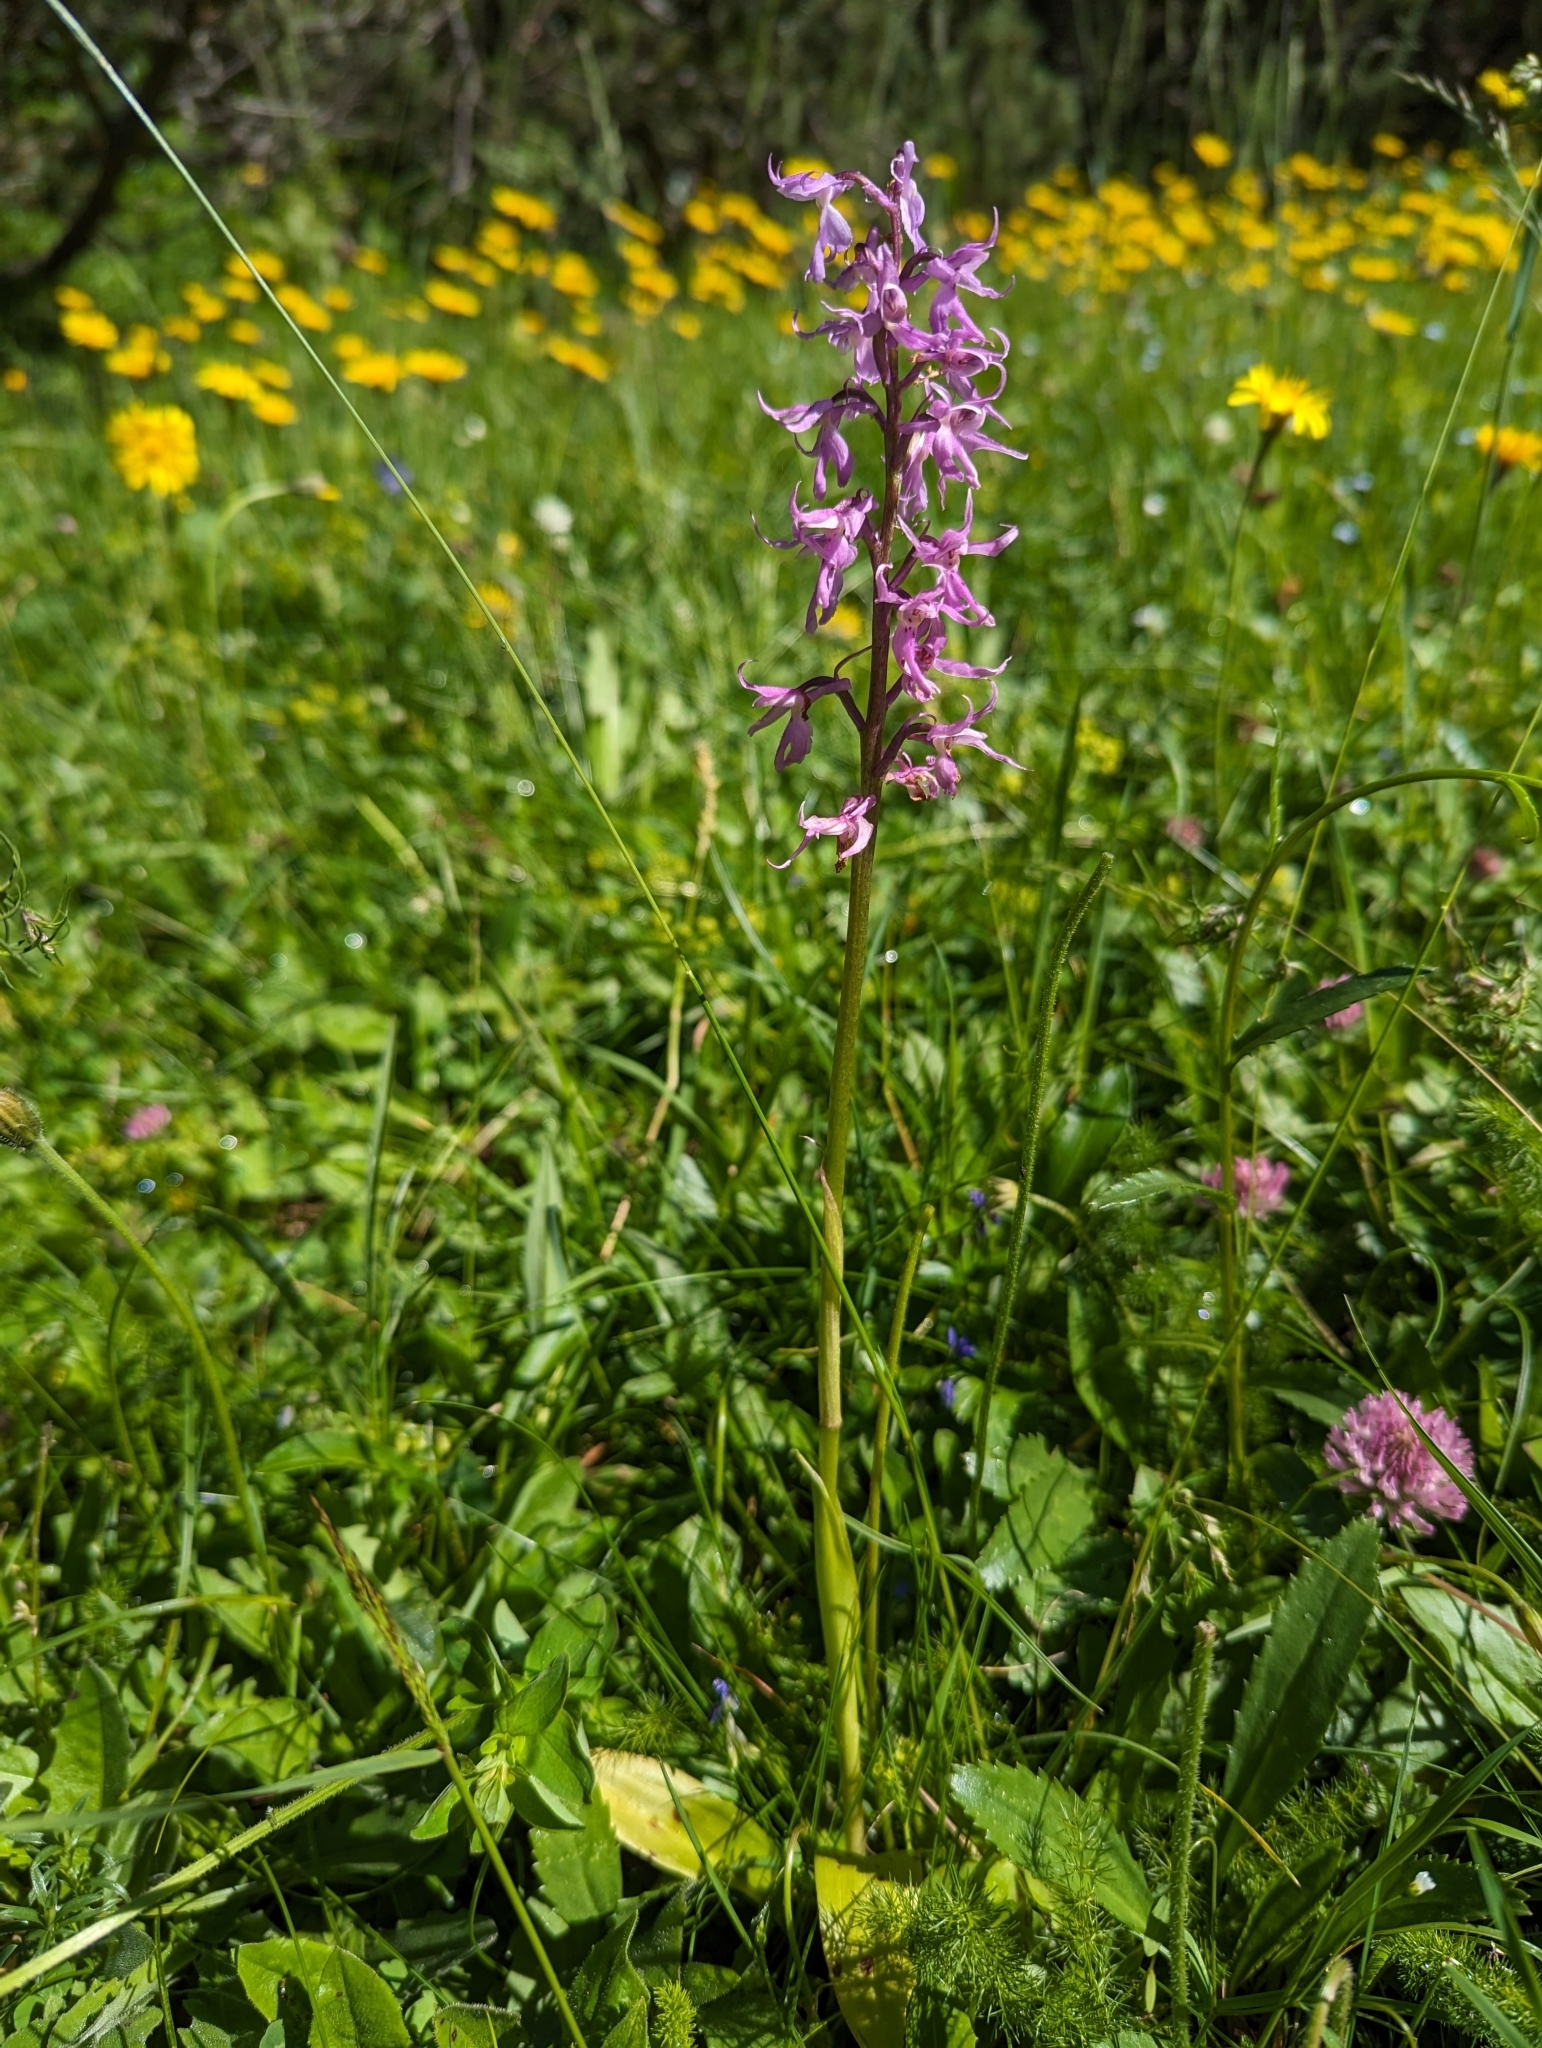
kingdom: Plantae
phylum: Tracheophyta
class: Liliopsida
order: Asparagales
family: Orchidaceae
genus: Orchis
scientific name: Orchis mascula
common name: Early-purple orchid
